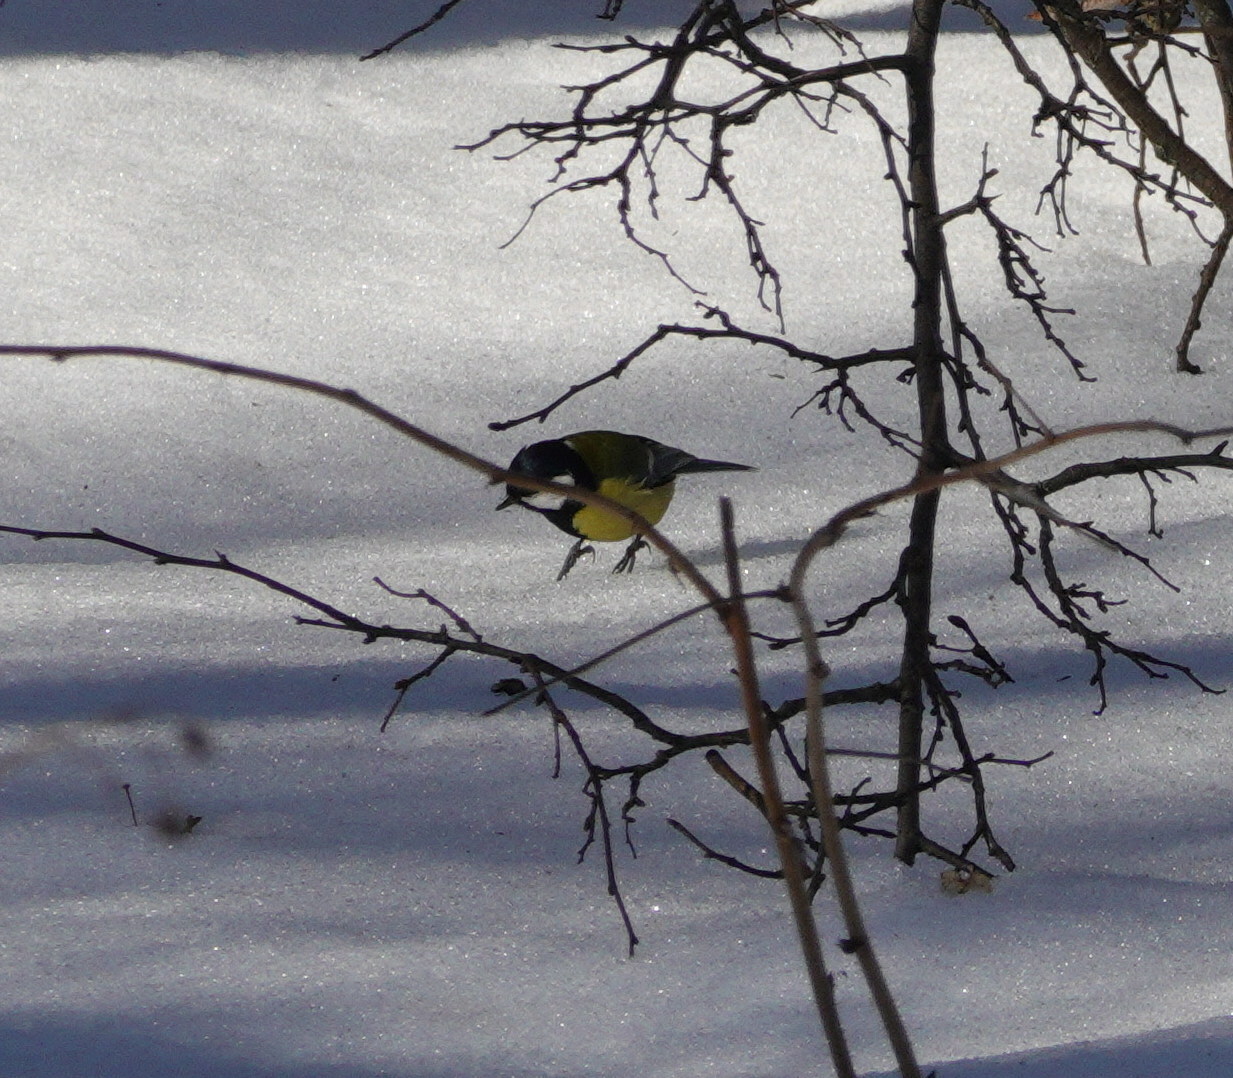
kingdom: Animalia
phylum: Chordata
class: Aves
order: Passeriformes
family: Paridae
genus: Parus
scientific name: Parus major
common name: Great tit
